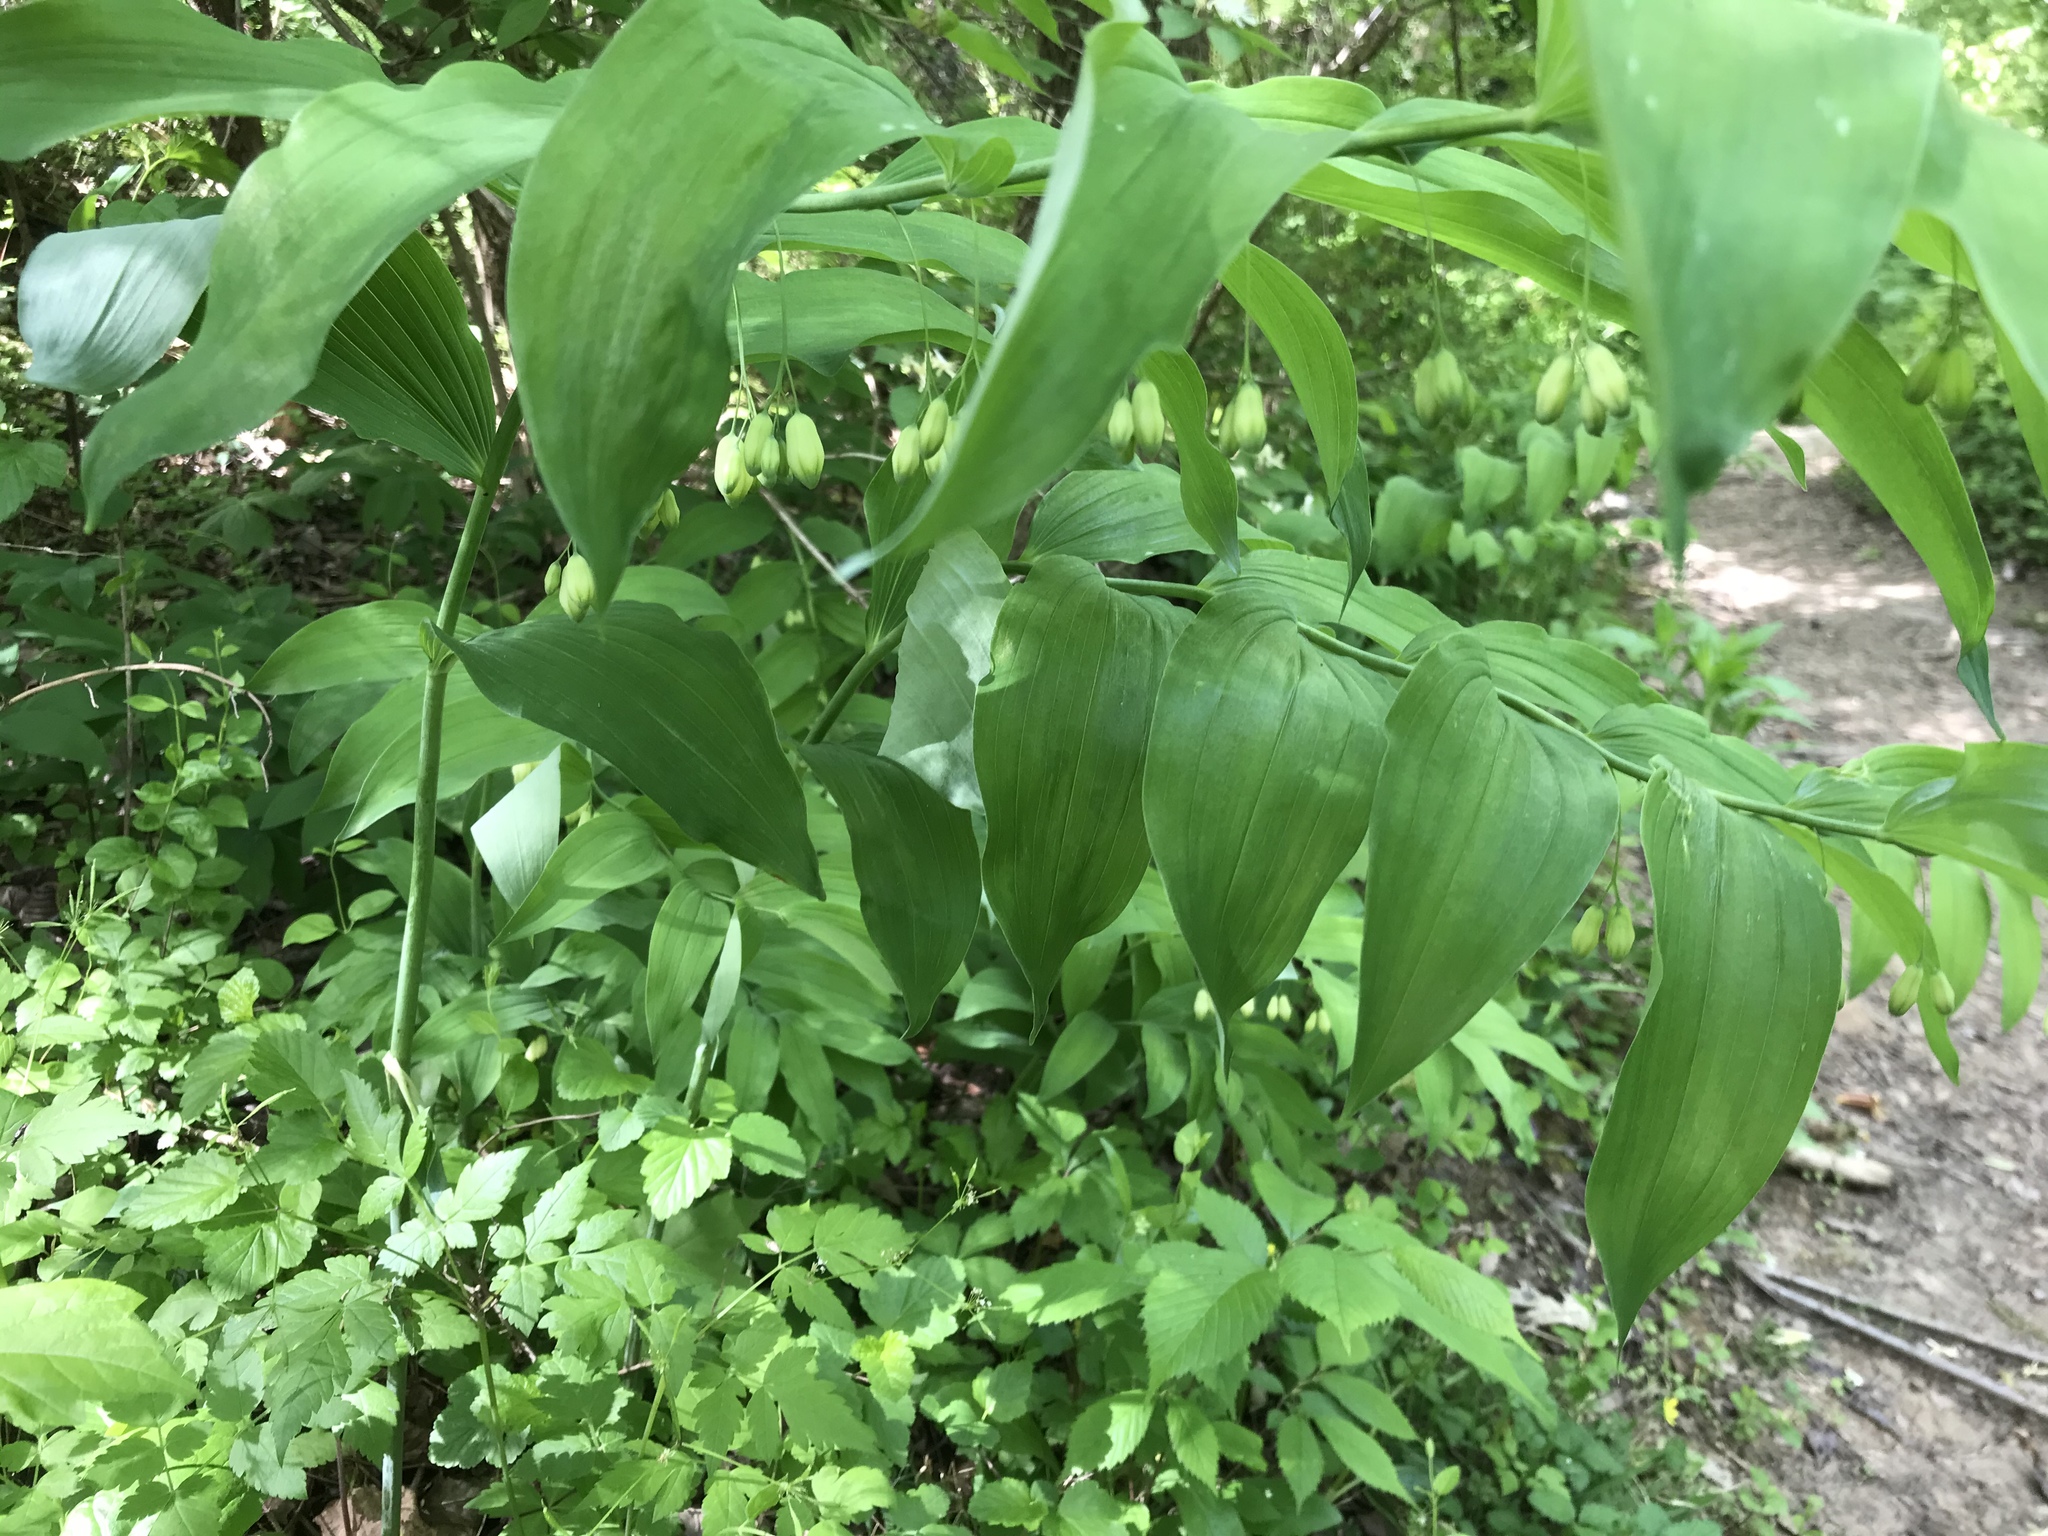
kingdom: Plantae
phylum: Tracheophyta
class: Liliopsida
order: Asparagales
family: Asparagaceae
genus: Polygonatum
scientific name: Polygonatum biflorum
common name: American solomon's-seal
